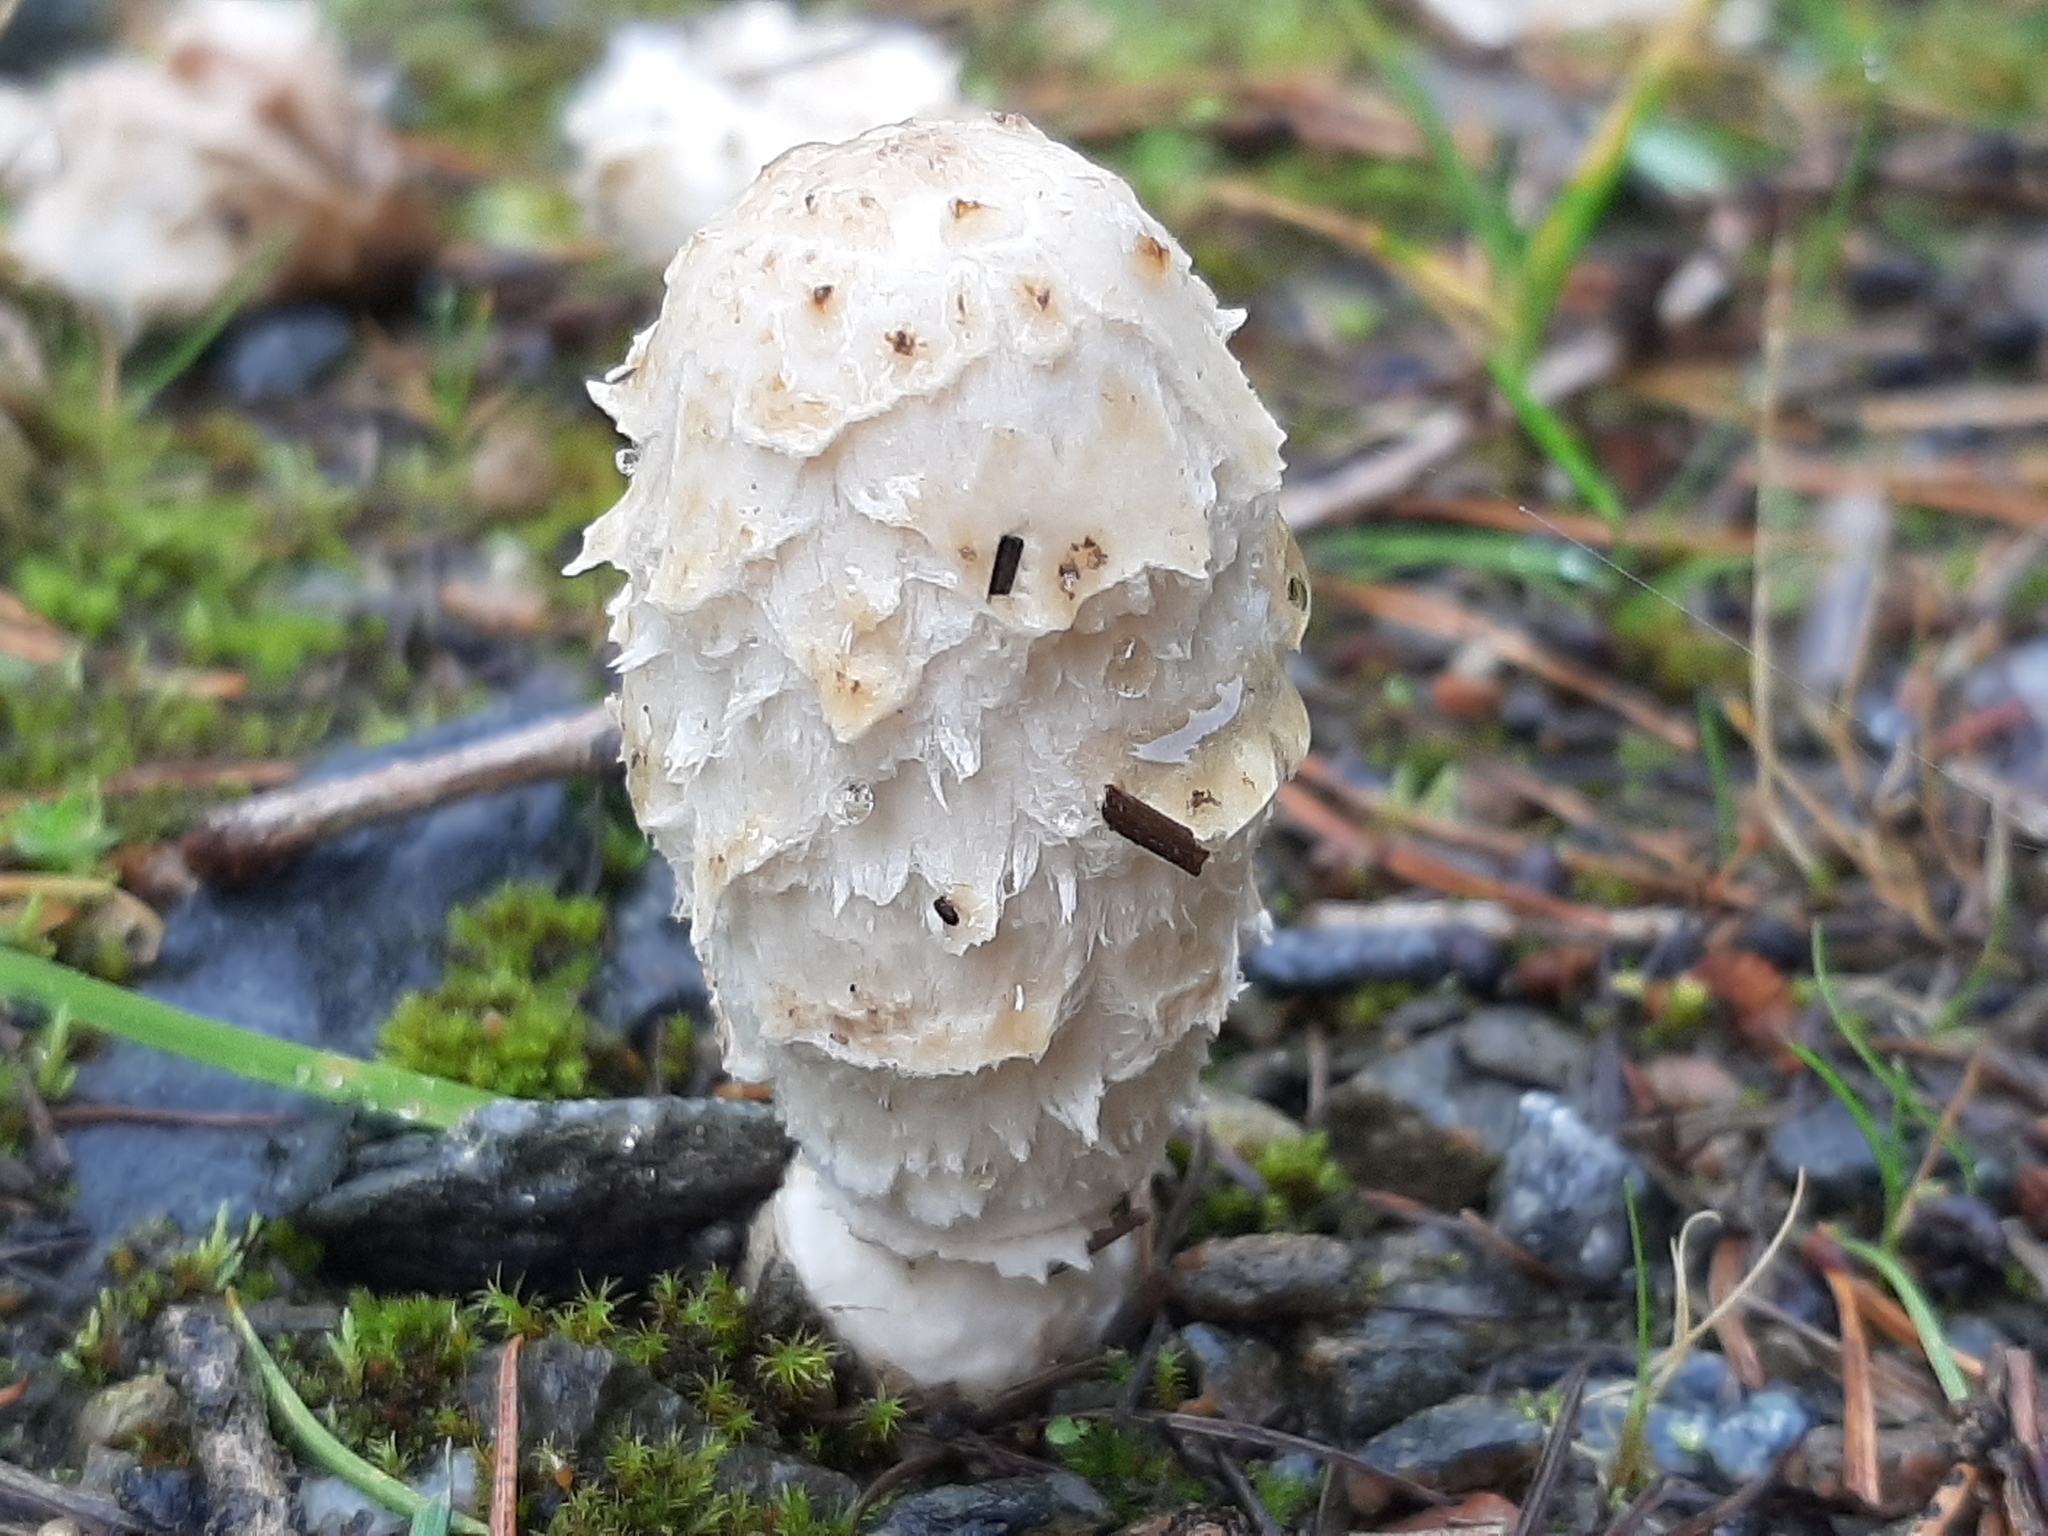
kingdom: Fungi
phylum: Basidiomycota
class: Agaricomycetes
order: Agaricales
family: Agaricaceae
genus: Coprinus
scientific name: Coprinus comatus
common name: Lawyer's wig
